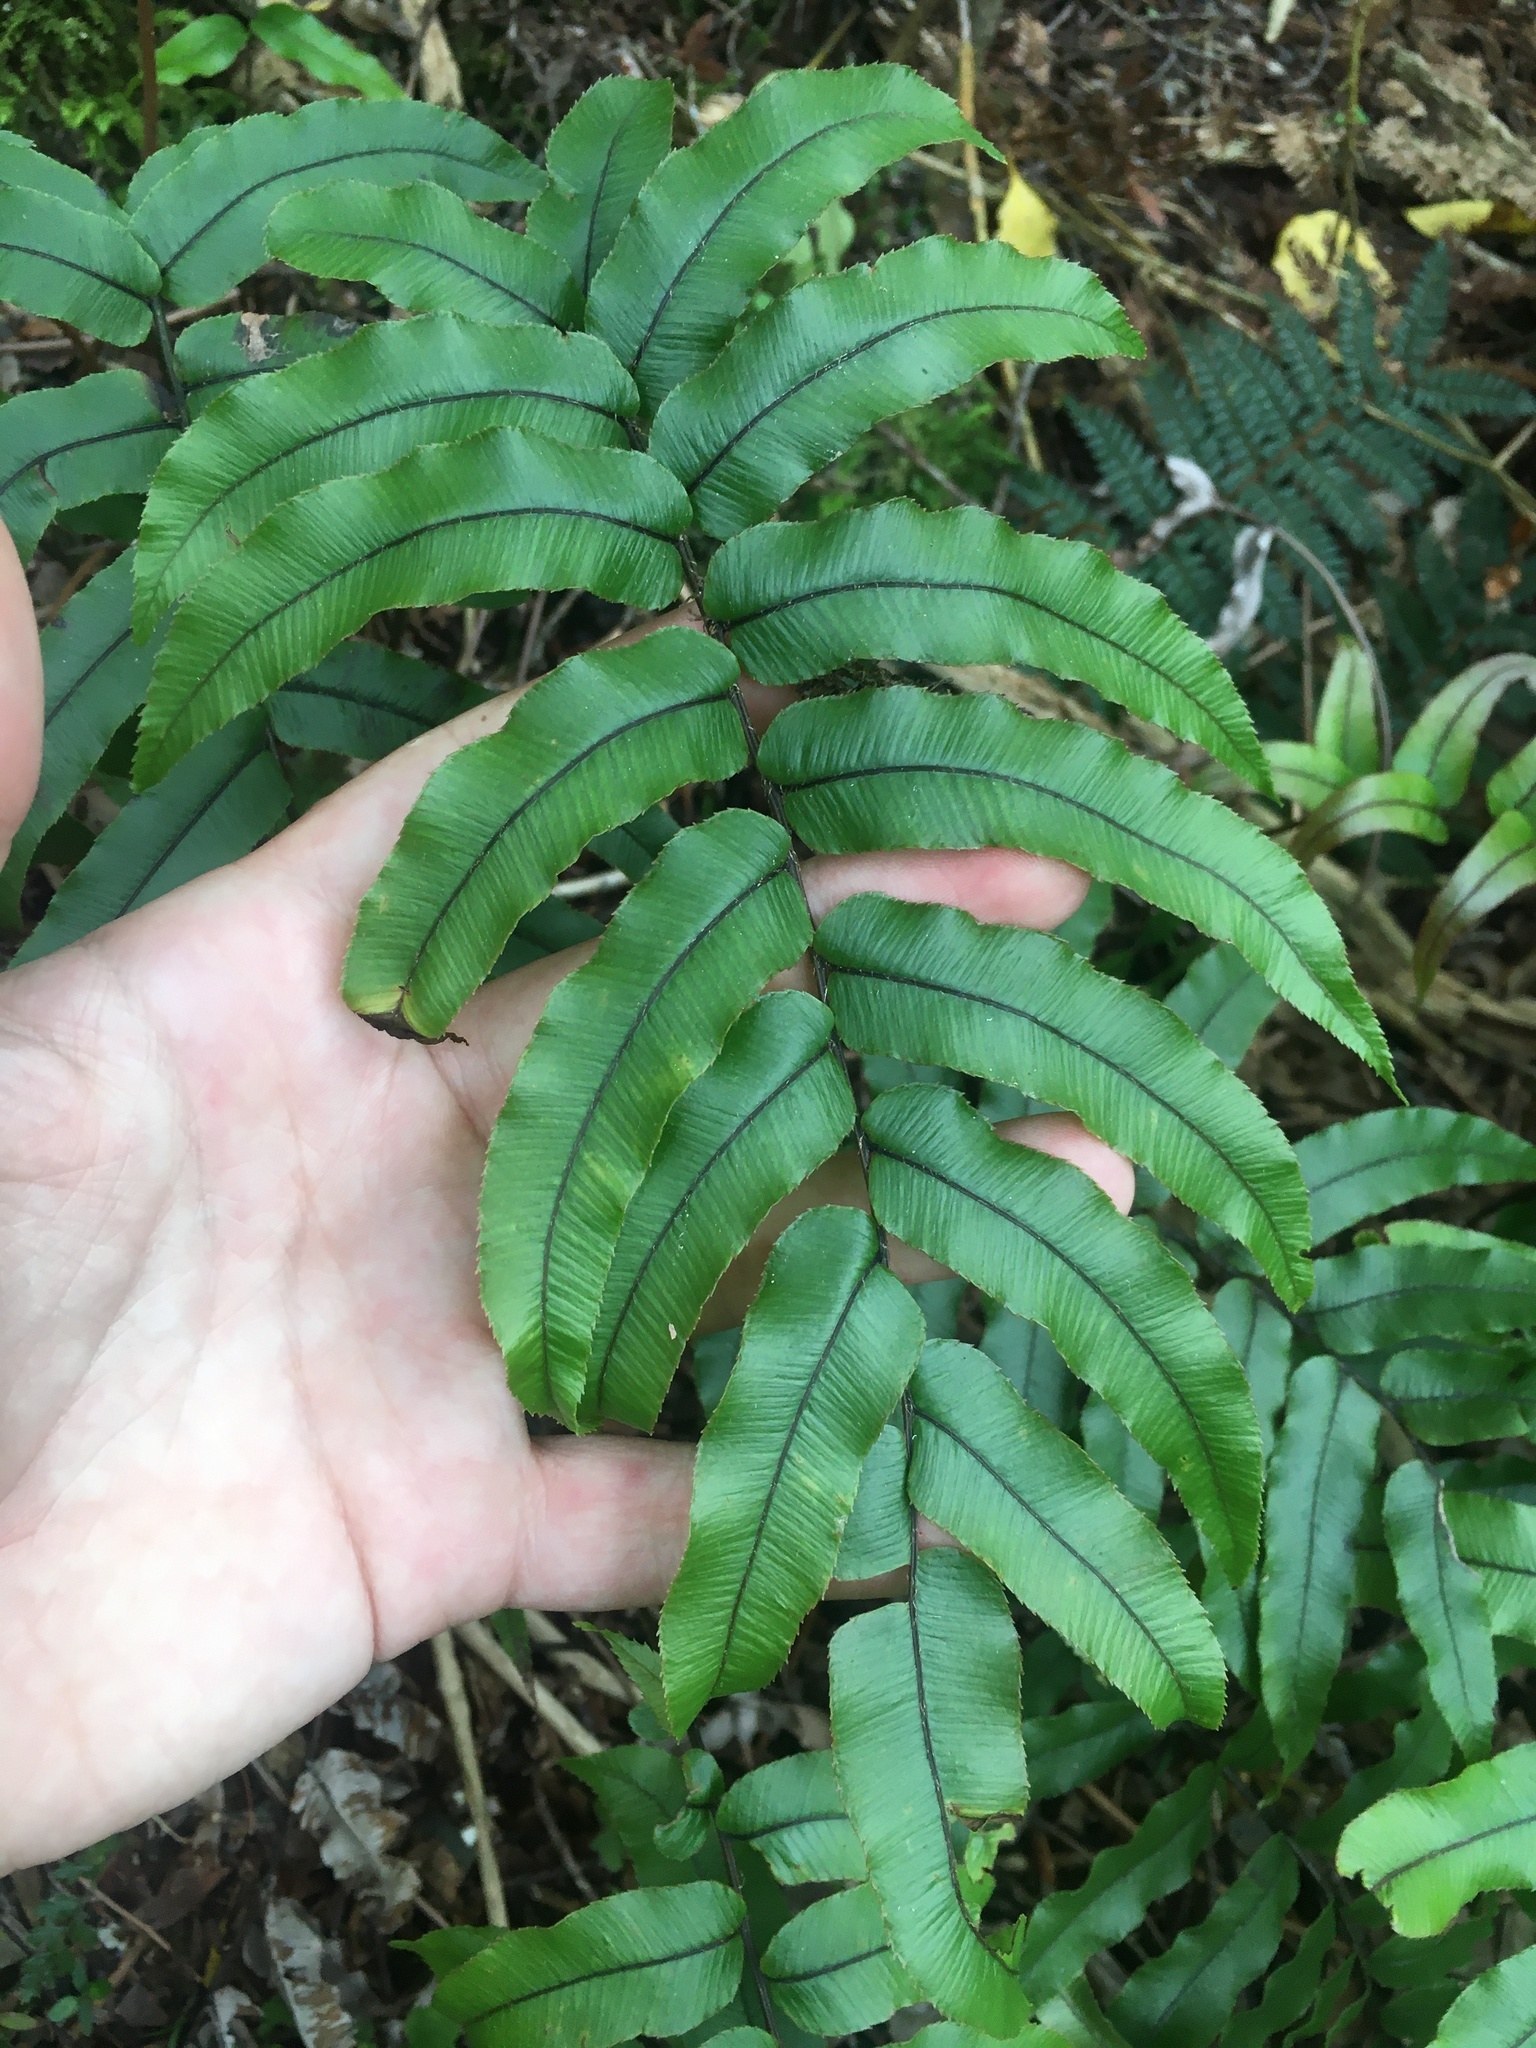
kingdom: Plantae
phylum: Tracheophyta
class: Polypodiopsida
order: Polypodiales
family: Blechnaceae
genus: Parablechnum
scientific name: Parablechnum procerum
